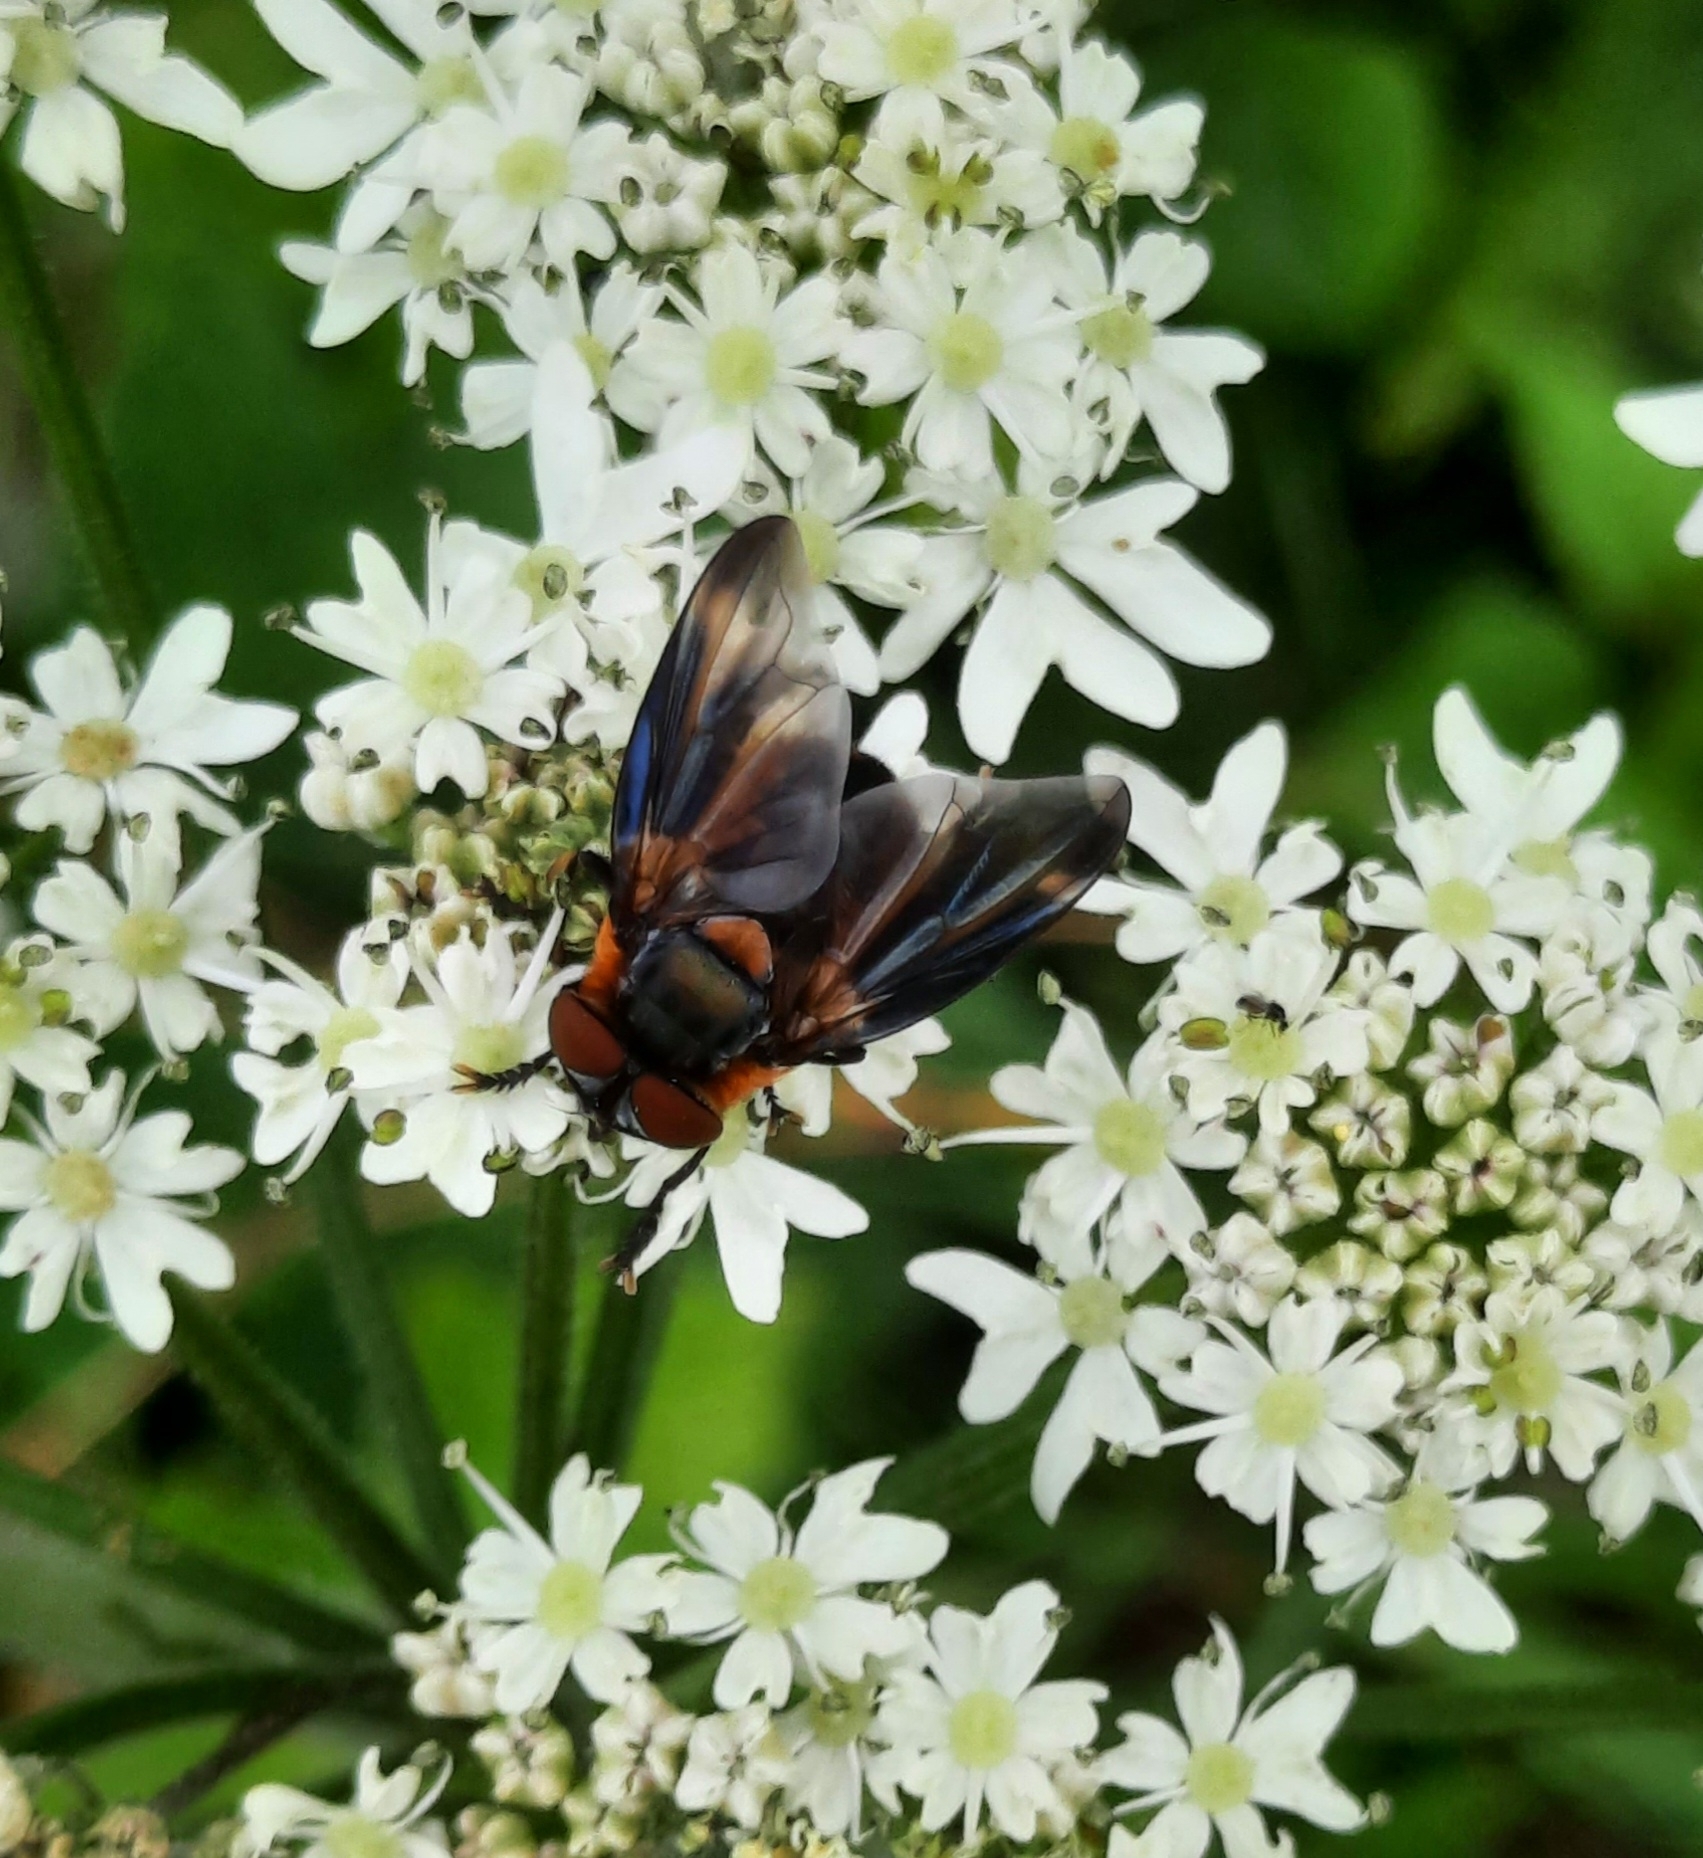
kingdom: Animalia
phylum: Arthropoda
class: Insecta
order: Diptera
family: Tachinidae
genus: Phasia
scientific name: Phasia hemiptera
